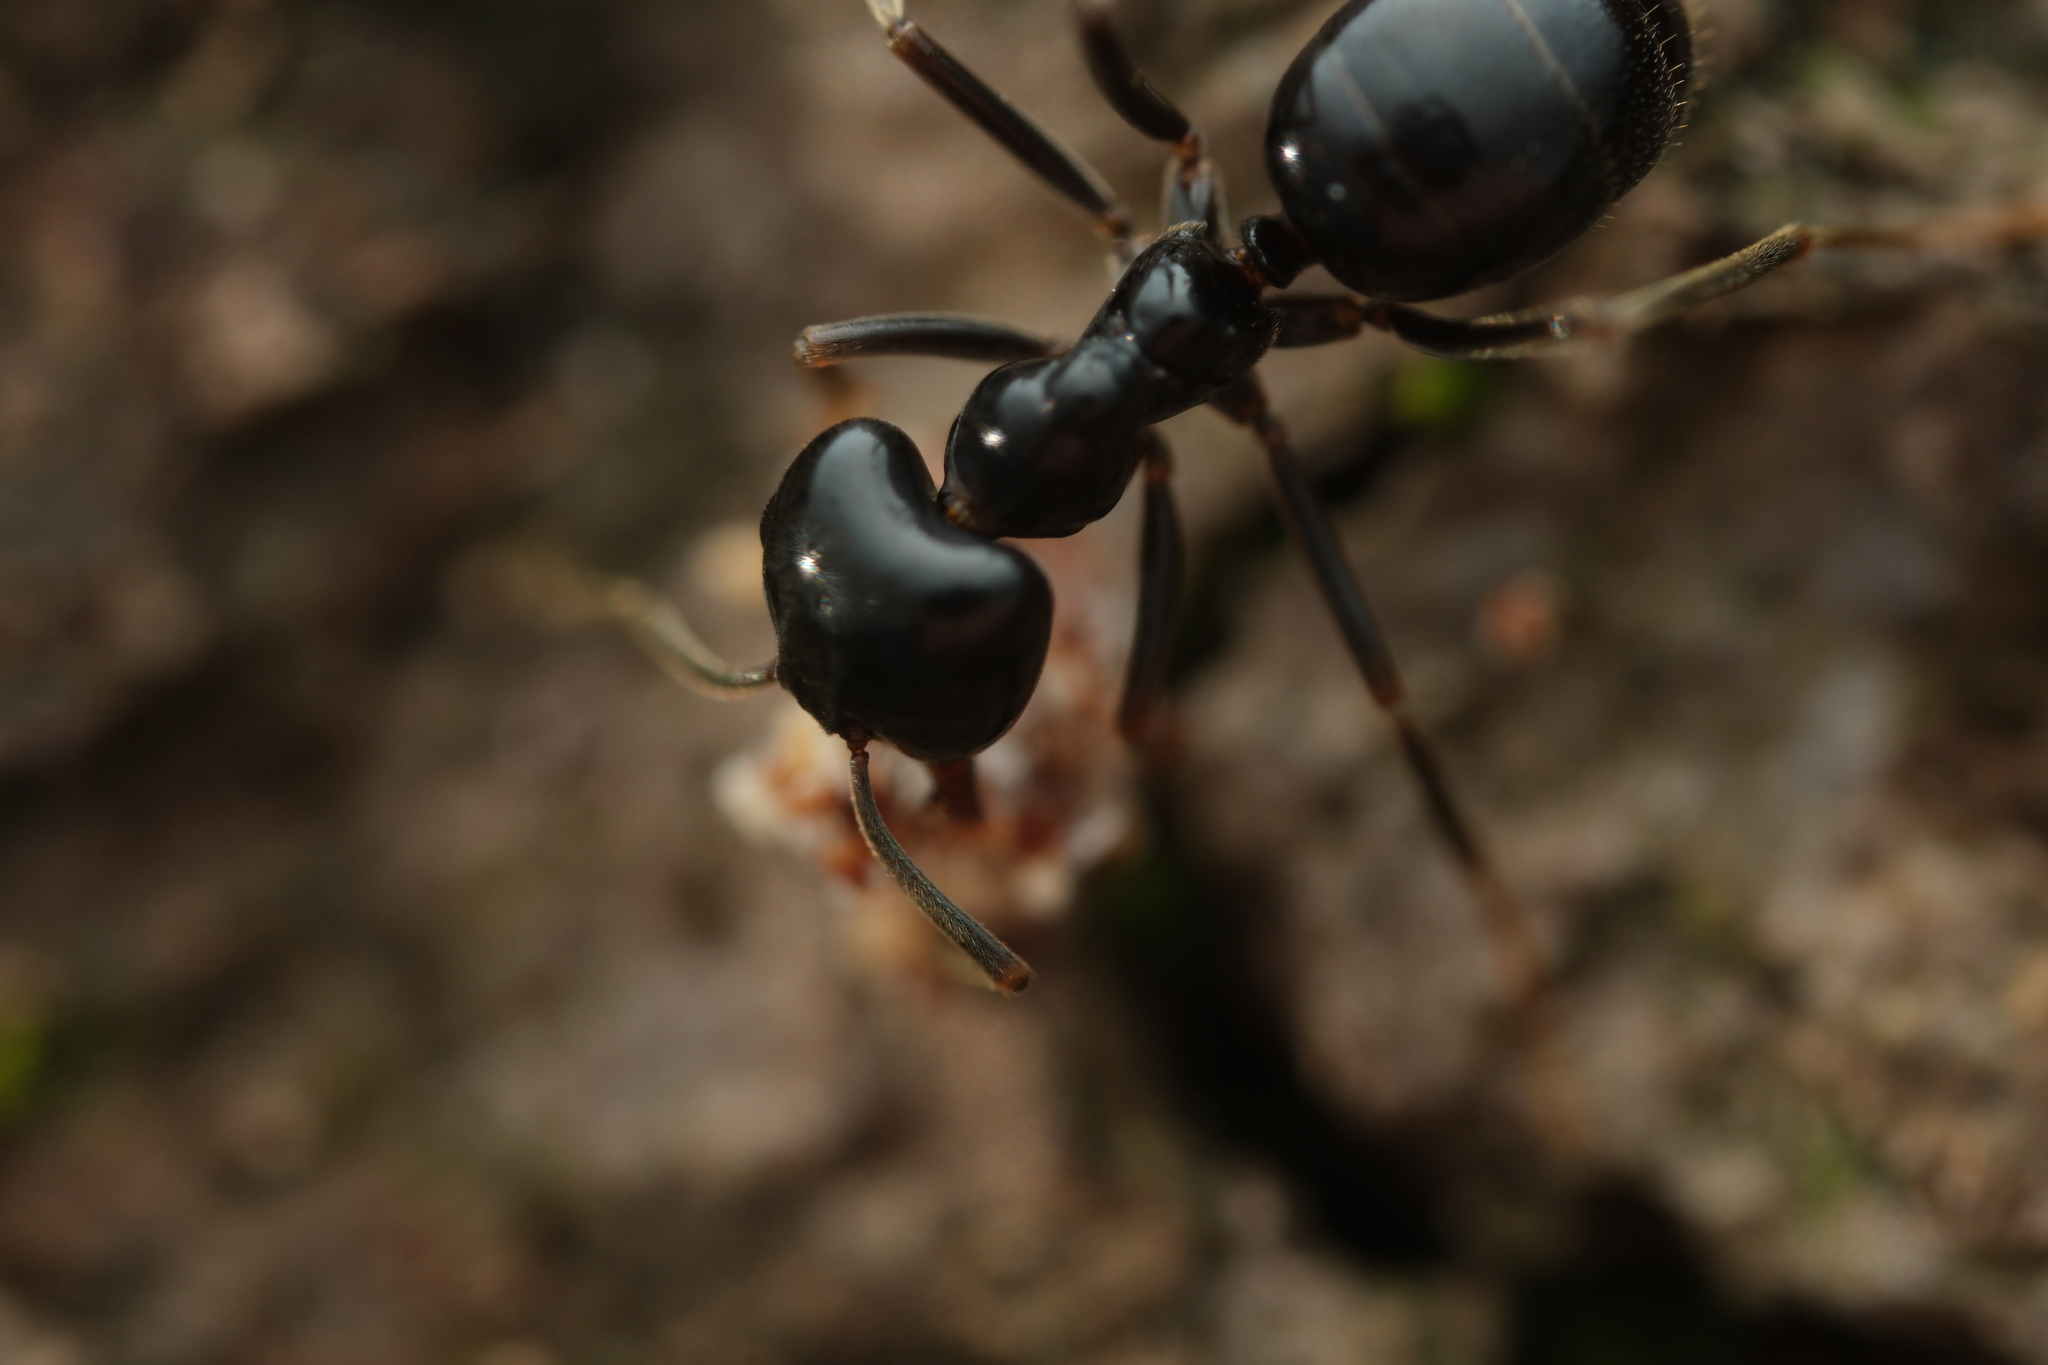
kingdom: Animalia
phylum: Arthropoda
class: Insecta
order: Hymenoptera
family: Formicidae
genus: Lasius
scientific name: Lasius fuliginosus
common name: Jet ant
